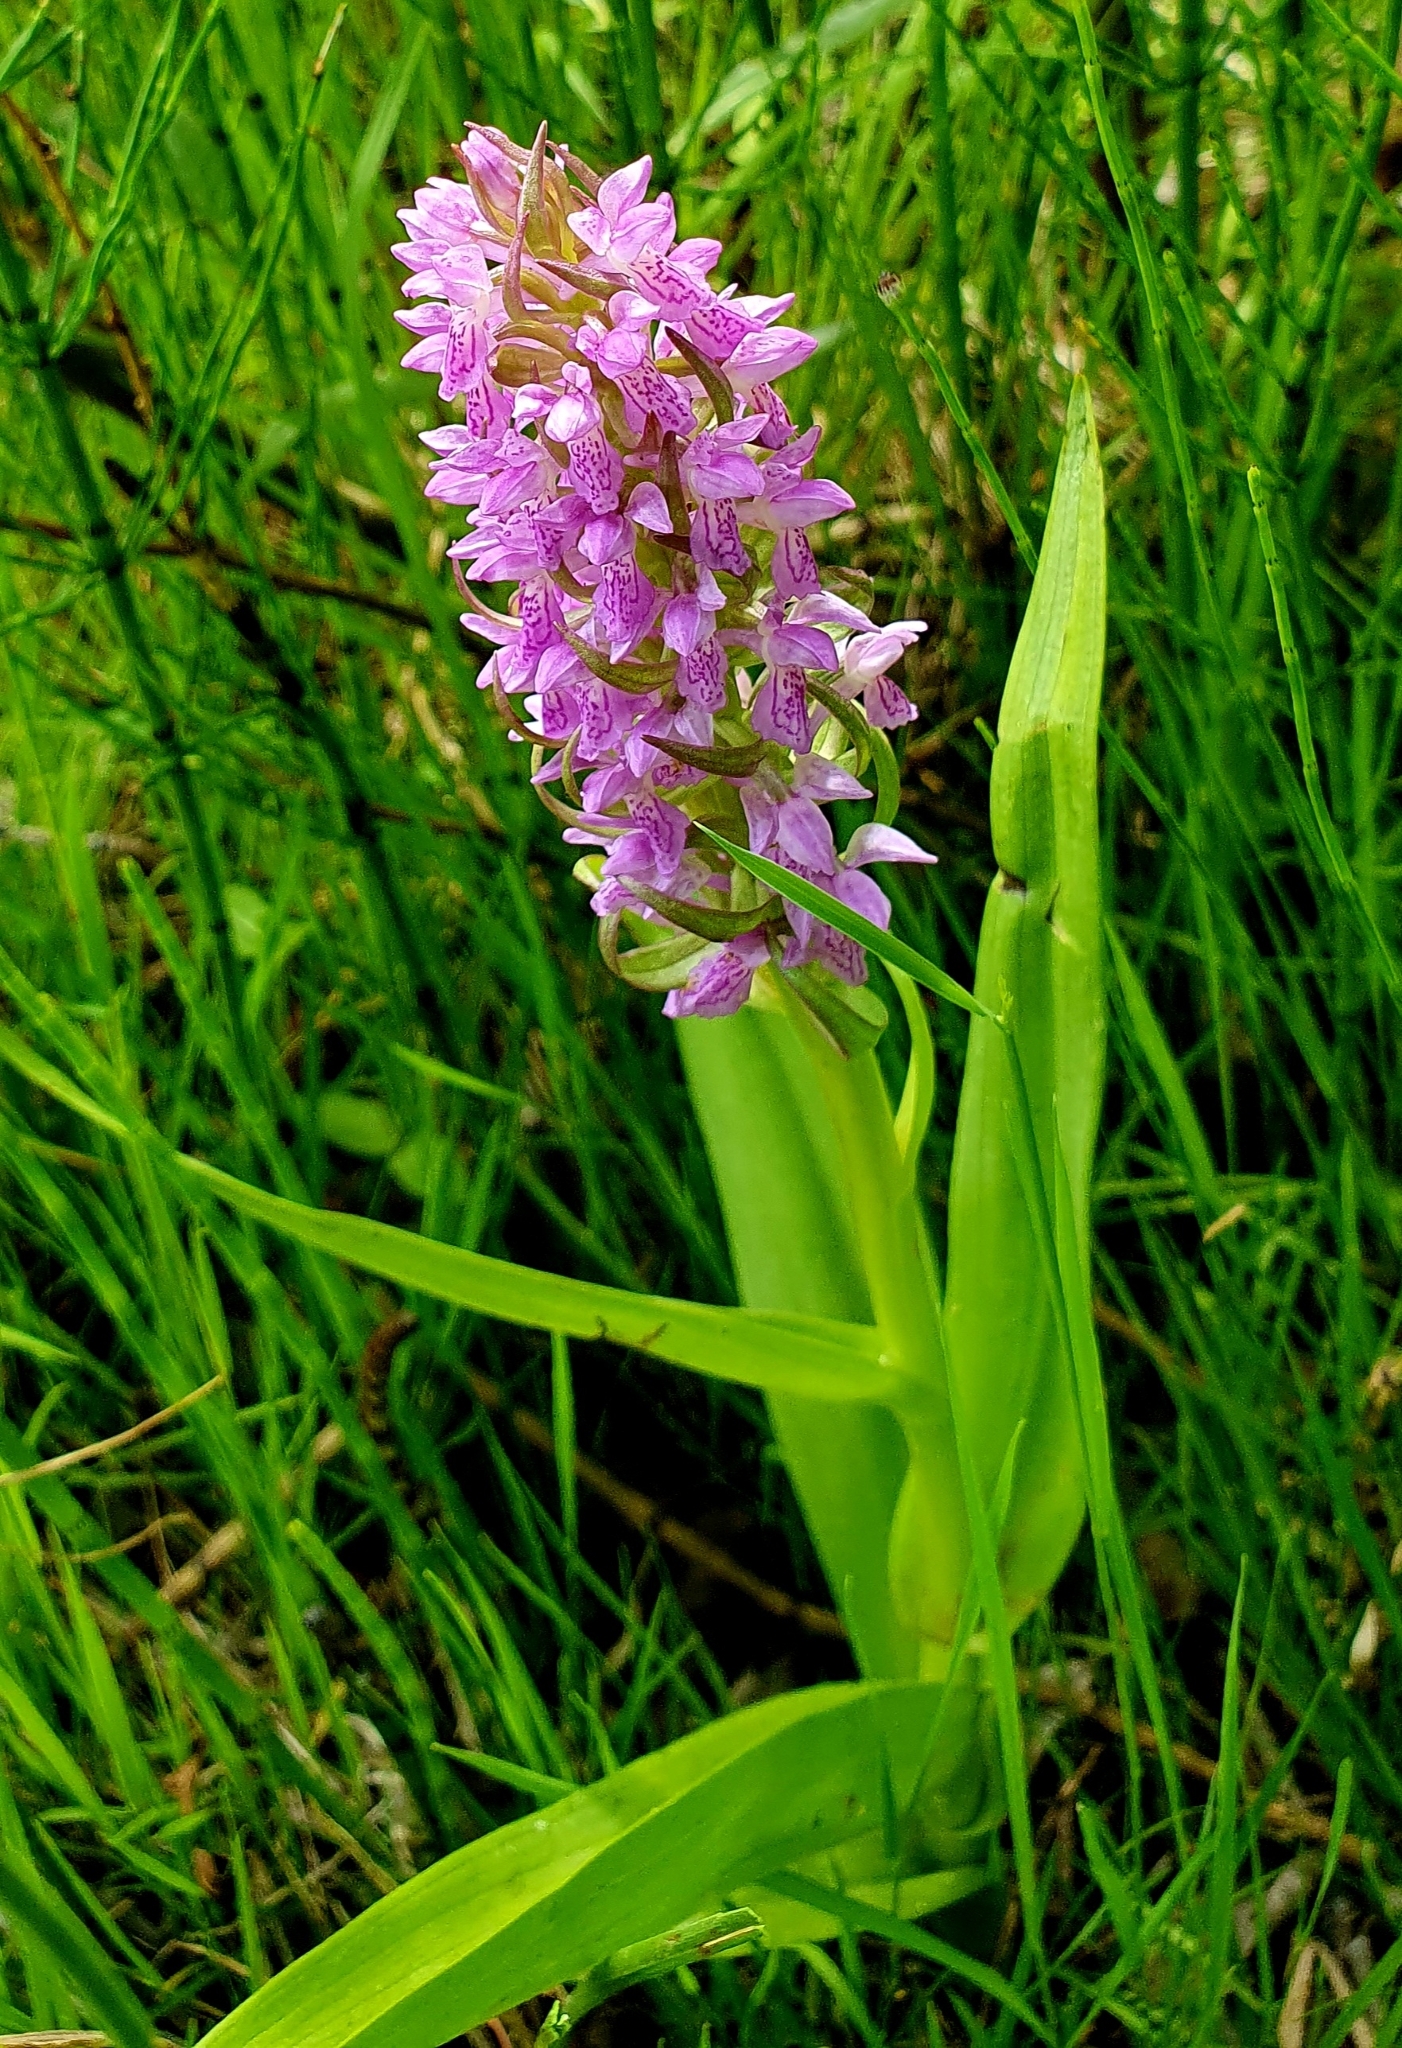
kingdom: Plantae
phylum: Tracheophyta
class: Liliopsida
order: Asparagales
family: Orchidaceae
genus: Dactylorhiza
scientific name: Dactylorhiza incarnata
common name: Early marsh-orchid
